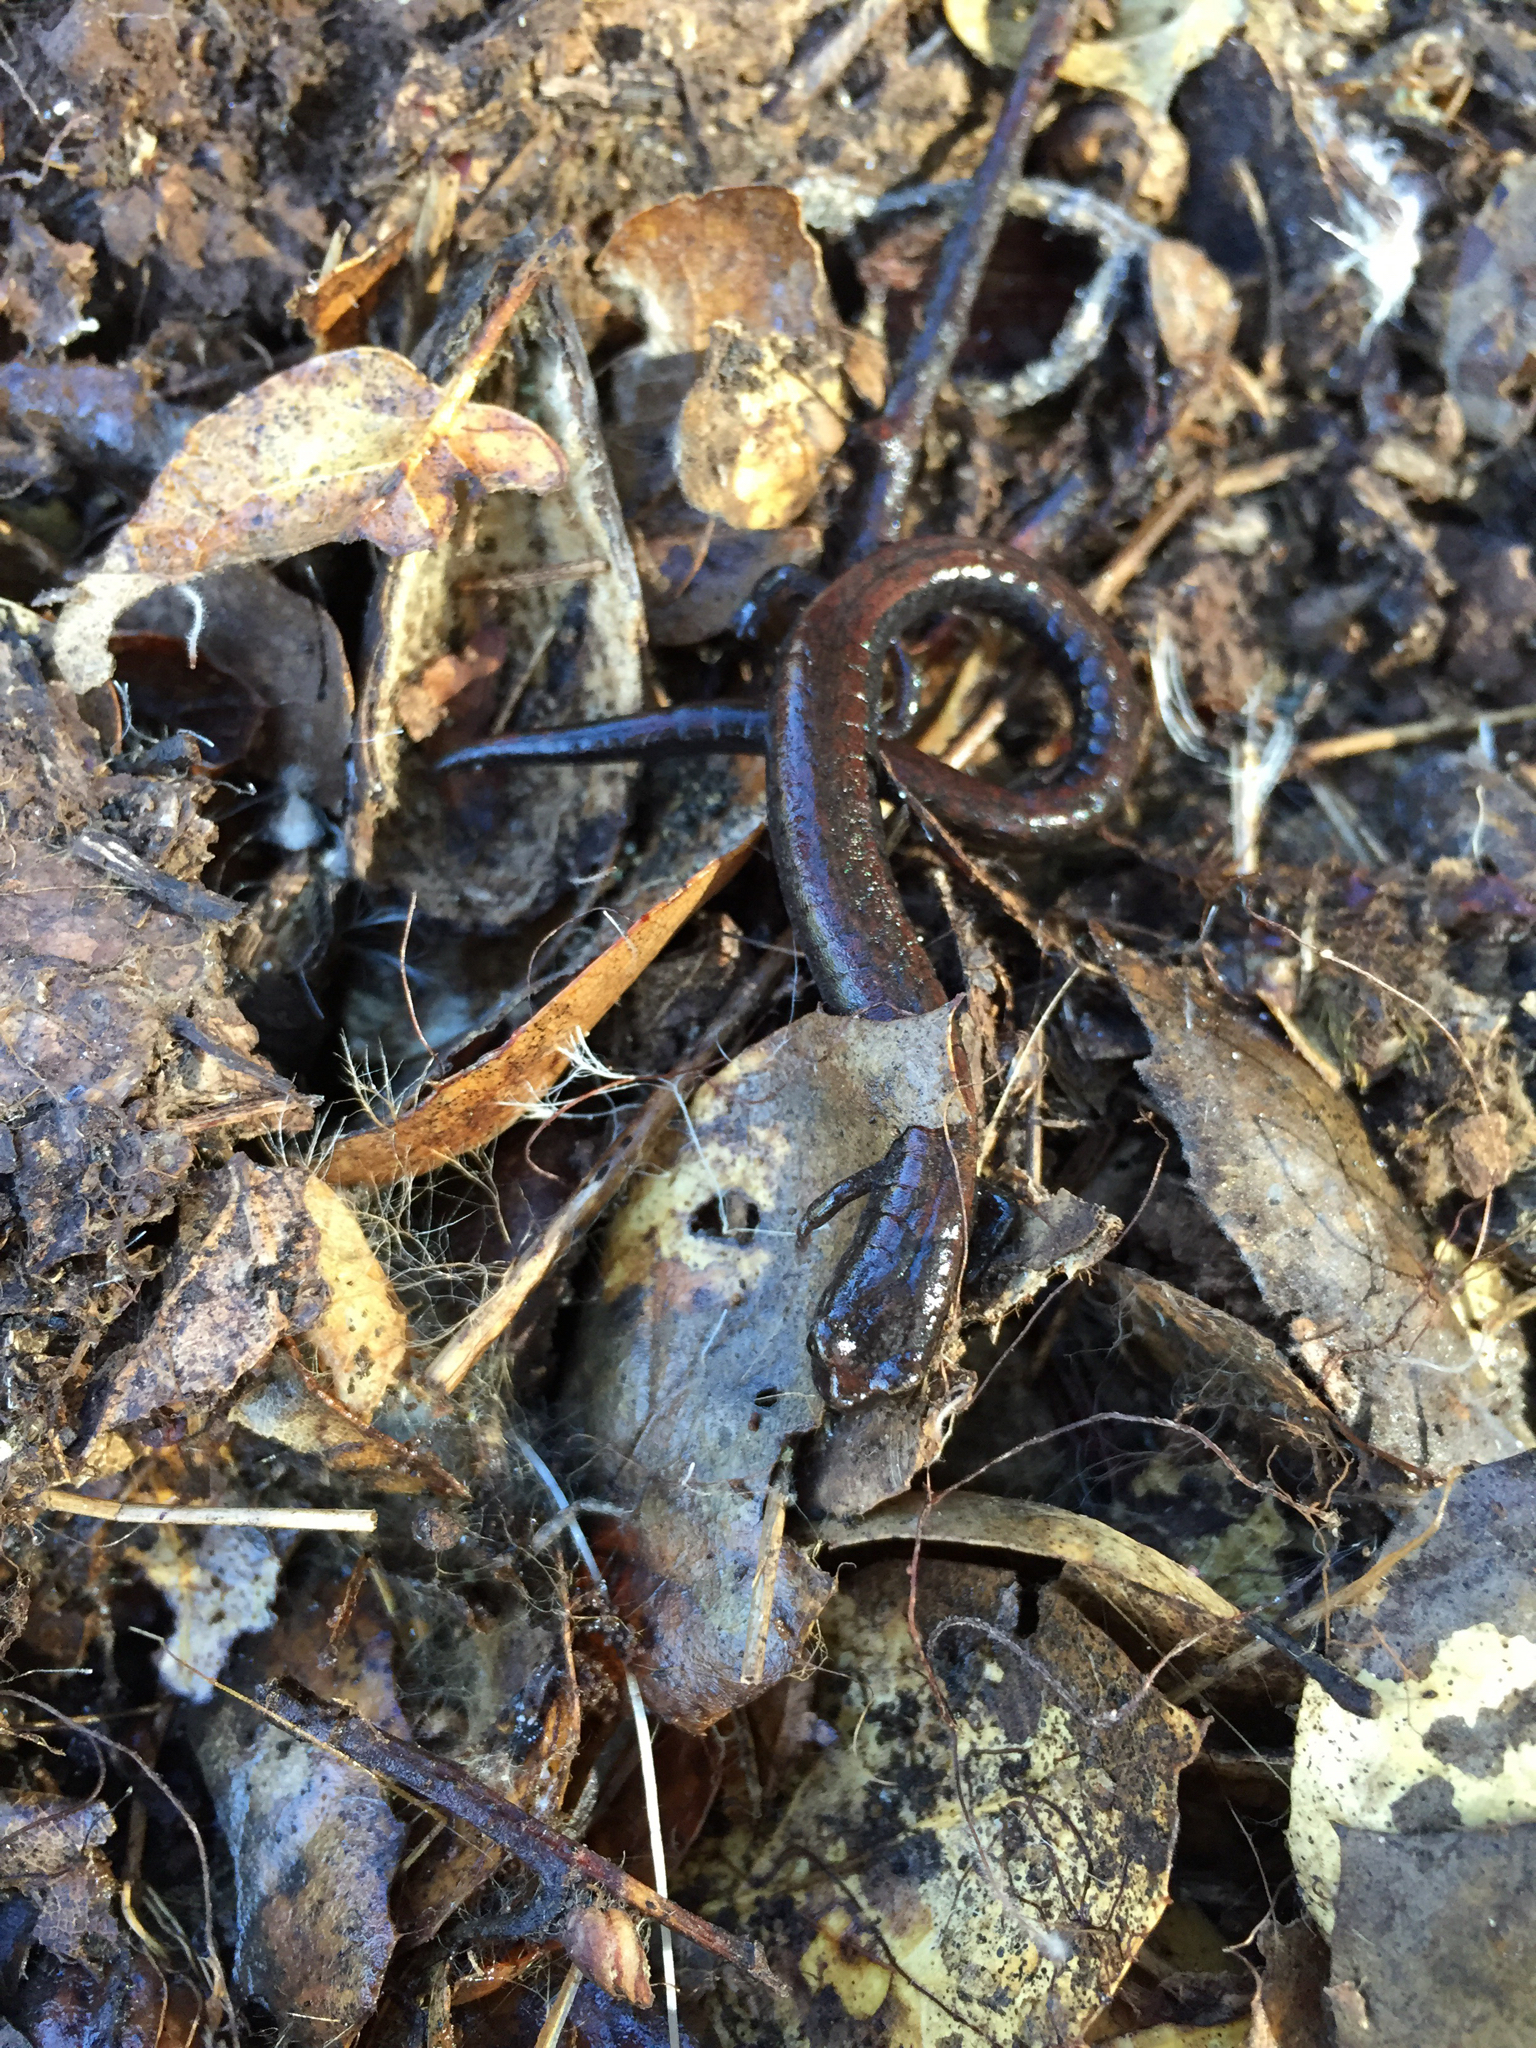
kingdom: Animalia
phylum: Chordata
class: Amphibia
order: Caudata
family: Plethodontidae
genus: Batrachoseps
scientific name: Batrachoseps attenuatus
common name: California slender salamander
